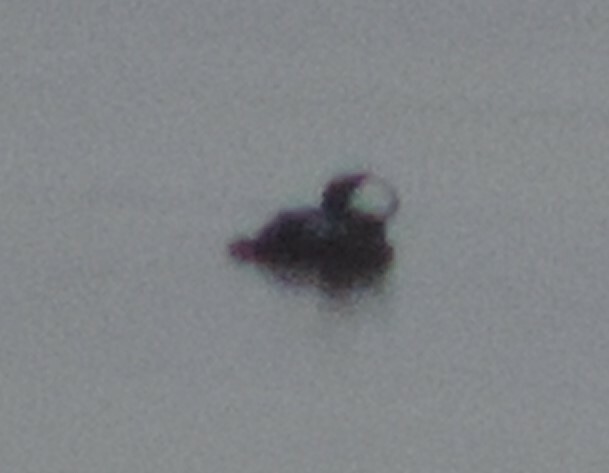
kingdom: Animalia
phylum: Chordata
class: Aves
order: Anseriformes
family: Anatidae
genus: Lophodytes
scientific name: Lophodytes cucullatus
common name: Hooded merganser
